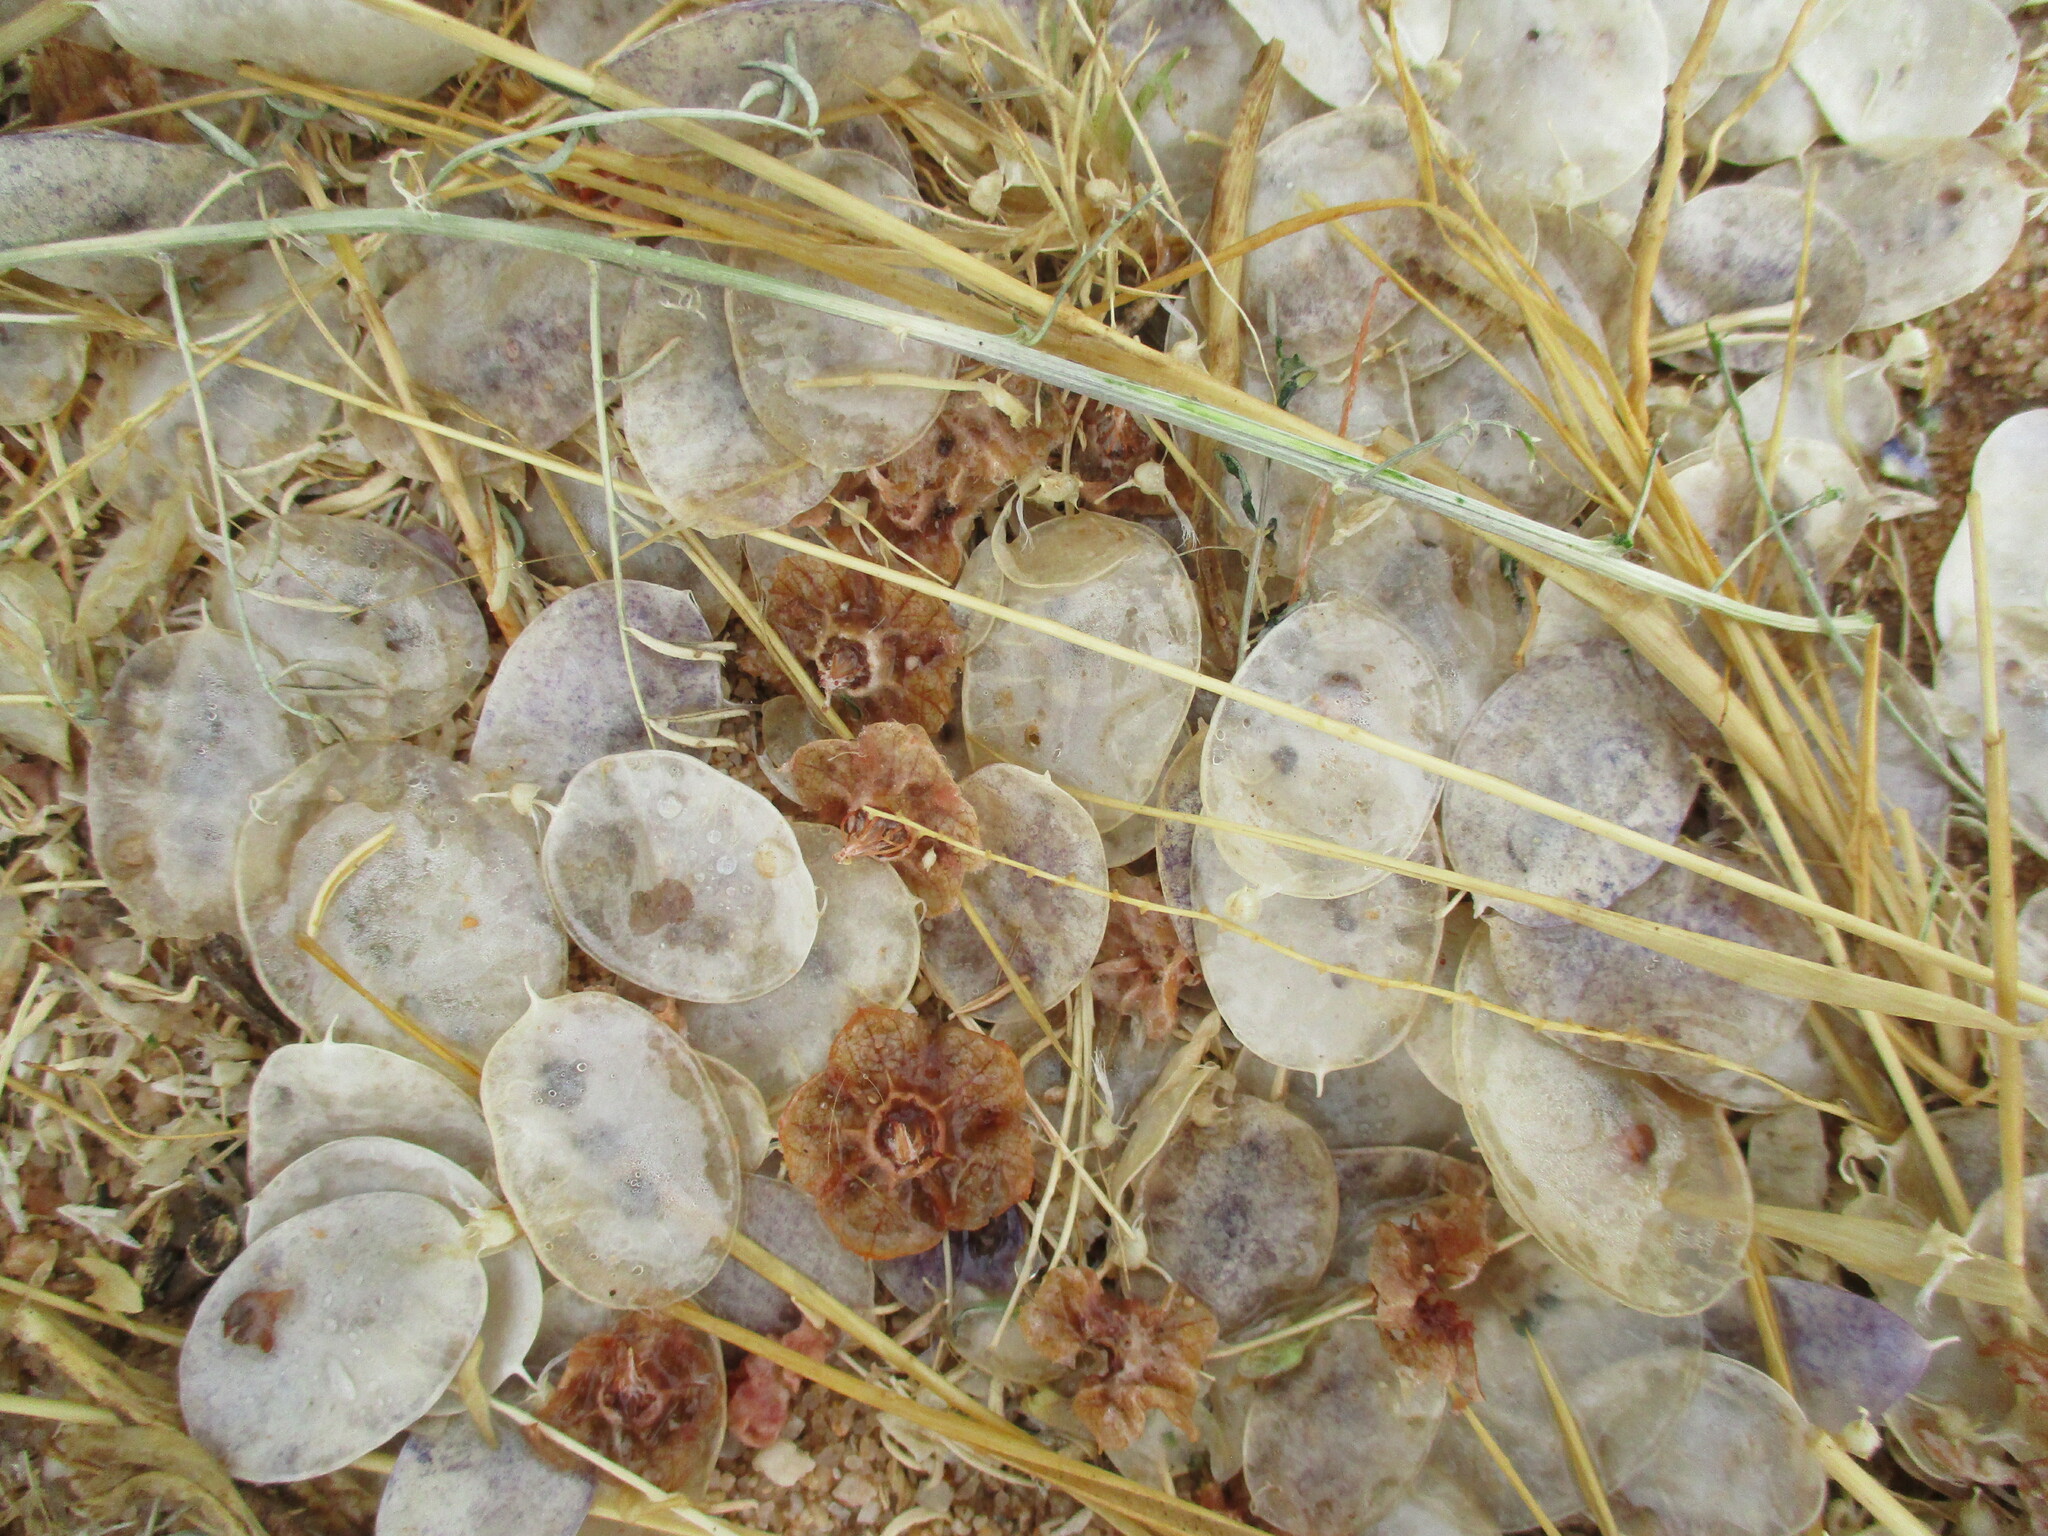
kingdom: Plantae
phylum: Tracheophyta
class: Magnoliopsida
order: Fabales
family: Fabaceae
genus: Lessertia
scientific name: Lessertia benguellensis
